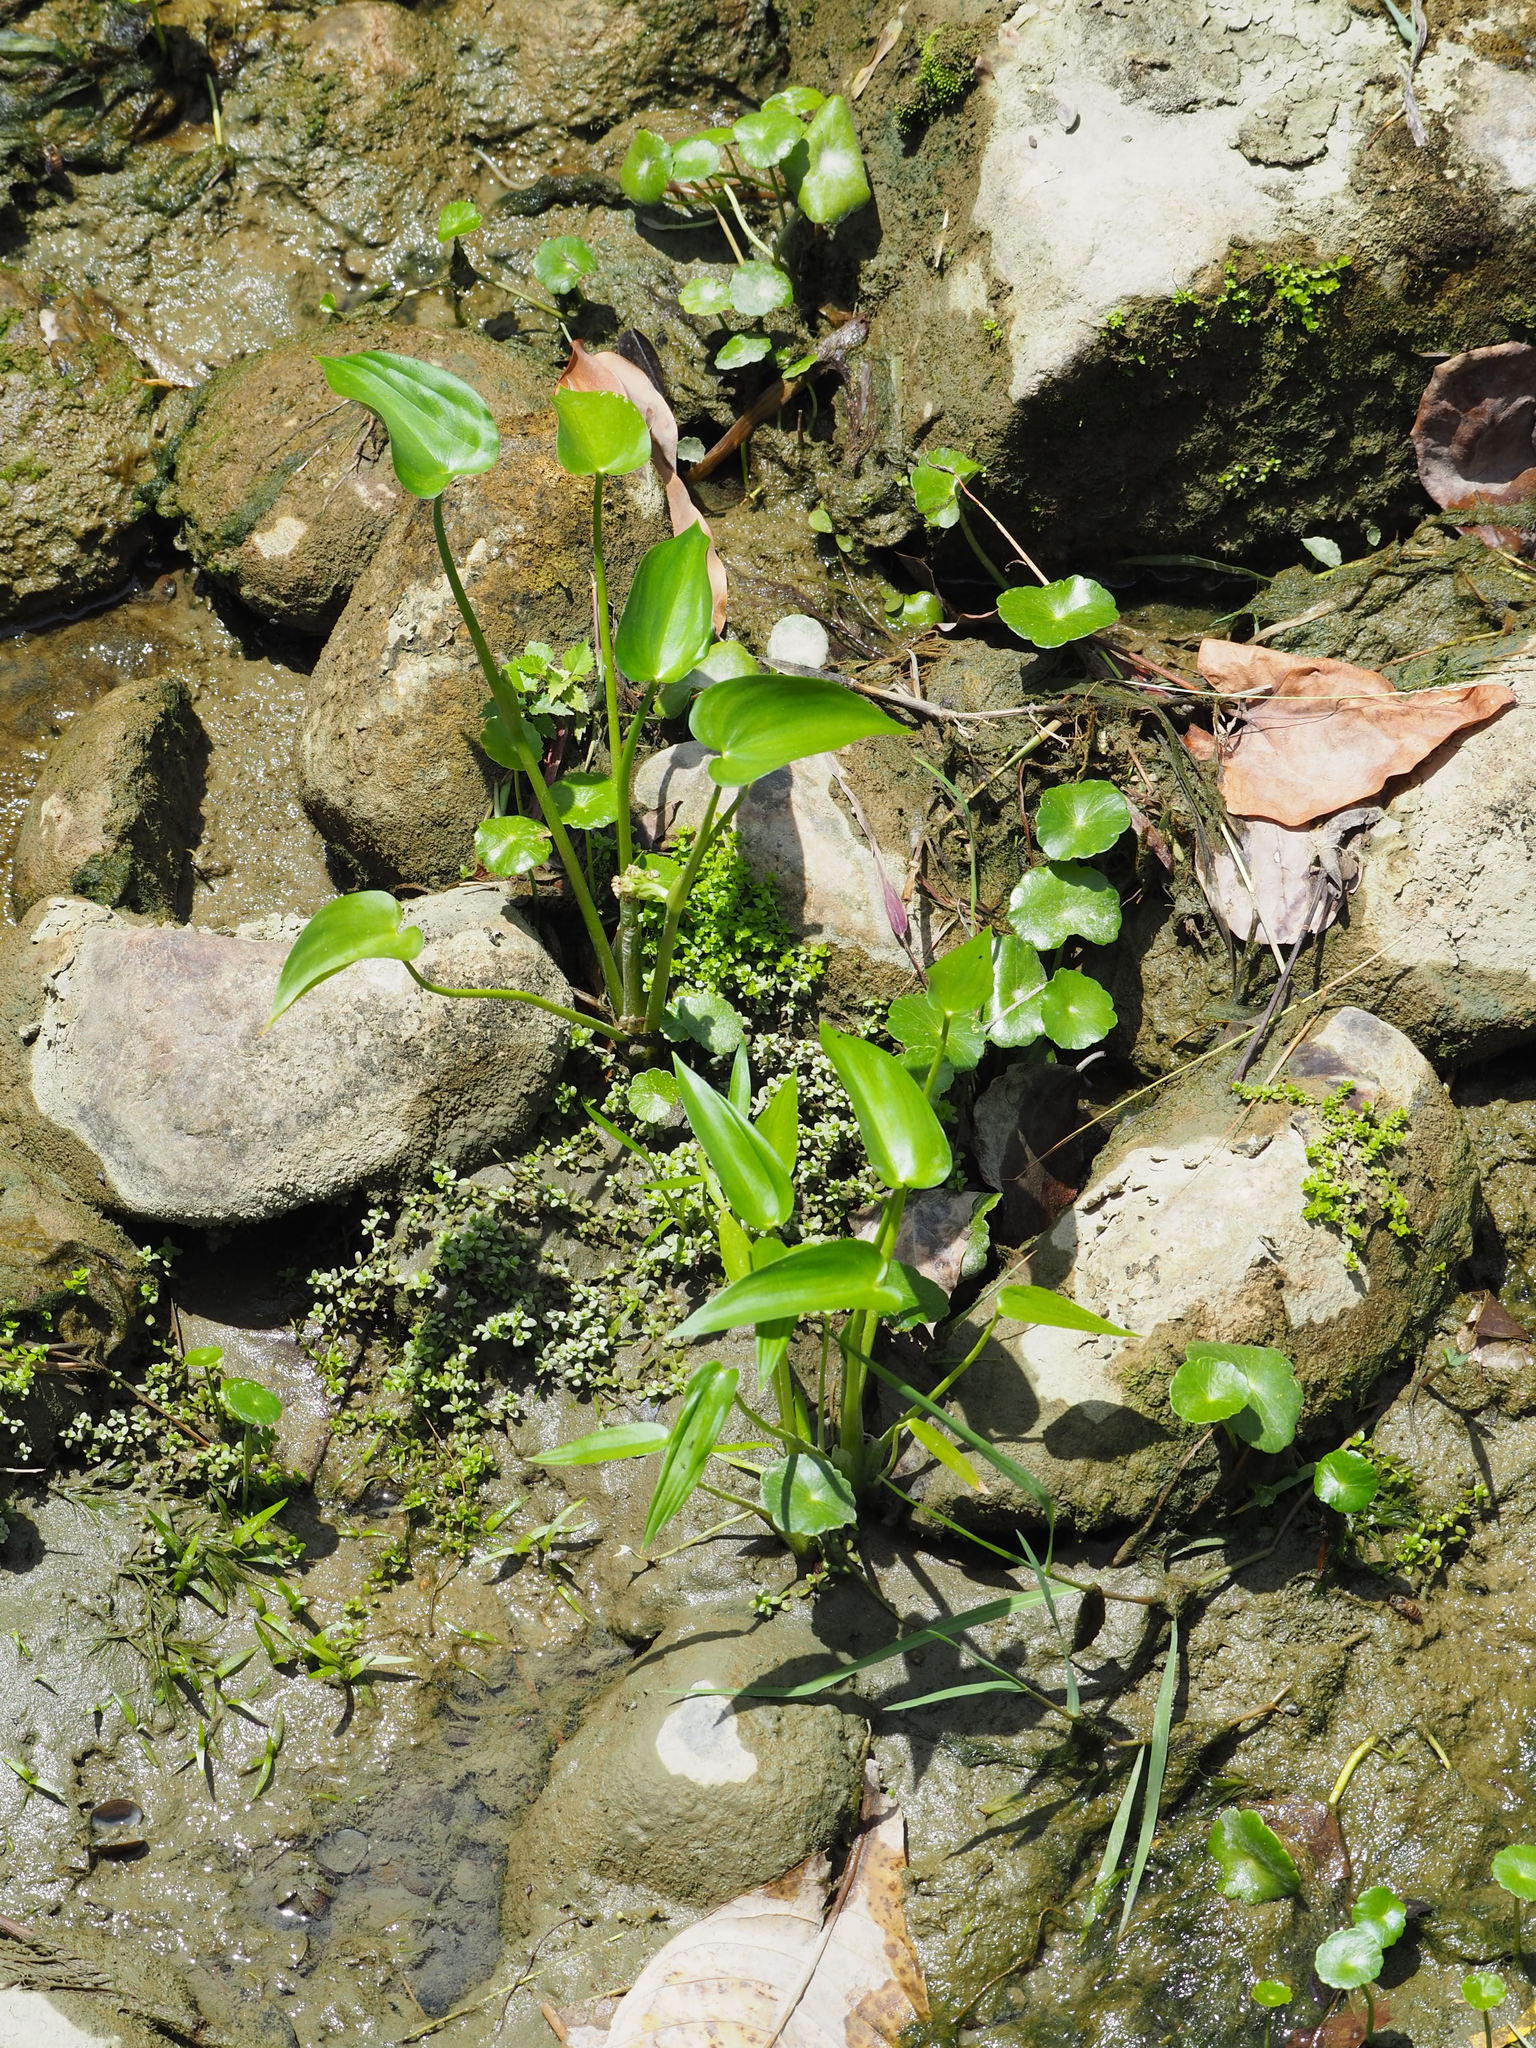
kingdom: Plantae
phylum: Tracheophyta
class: Liliopsida
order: Commelinales
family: Pontederiaceae
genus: Pontederia
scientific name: Pontederia vaginalis
